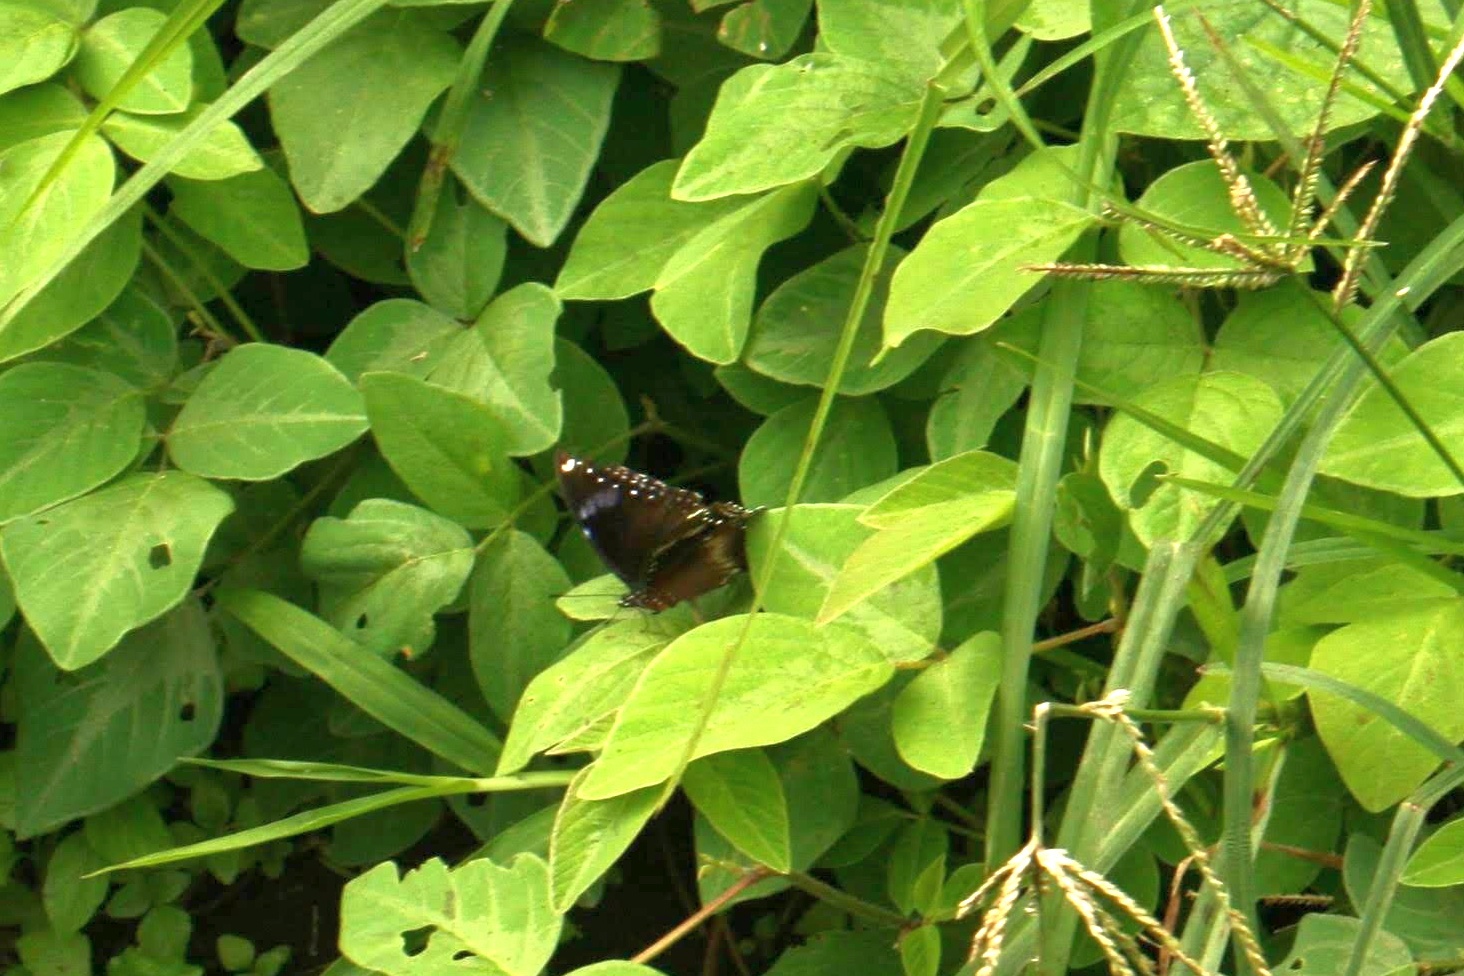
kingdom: Animalia
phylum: Arthropoda
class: Insecta
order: Lepidoptera
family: Nymphalidae
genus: Hypolimnas
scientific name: Hypolimnas bolina
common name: Great eggfly
